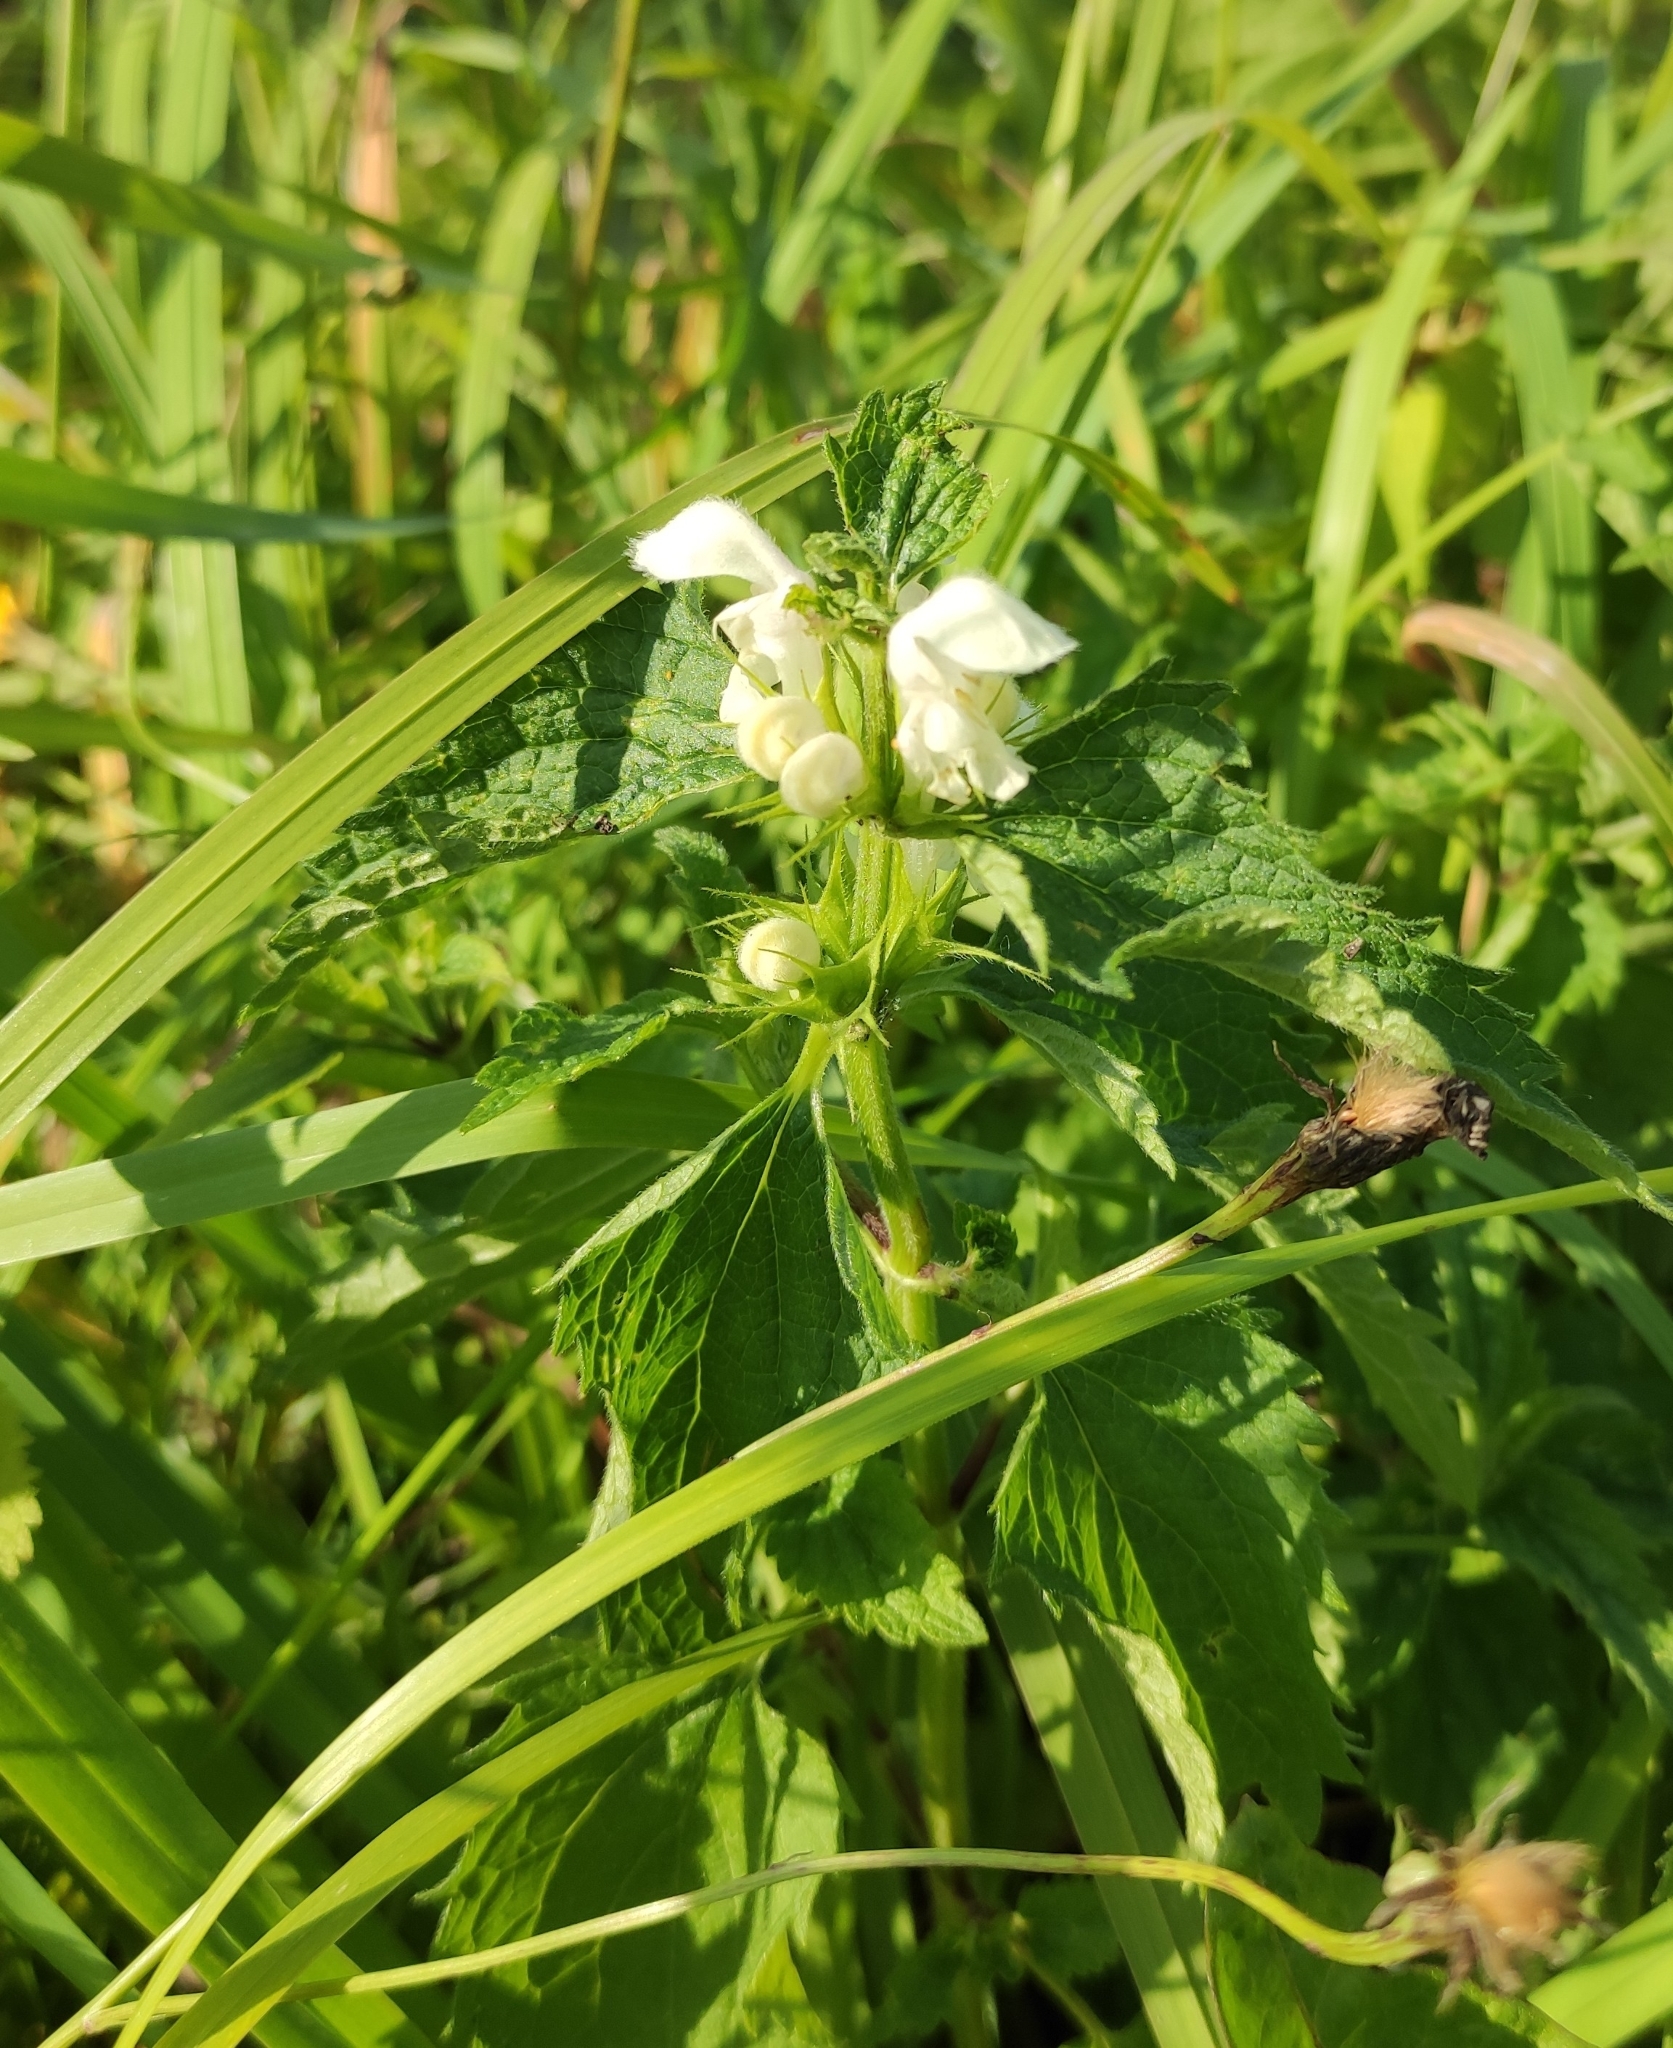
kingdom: Plantae
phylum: Tracheophyta
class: Magnoliopsida
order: Lamiales
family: Lamiaceae
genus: Lamium
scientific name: Lamium album
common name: White dead-nettle
